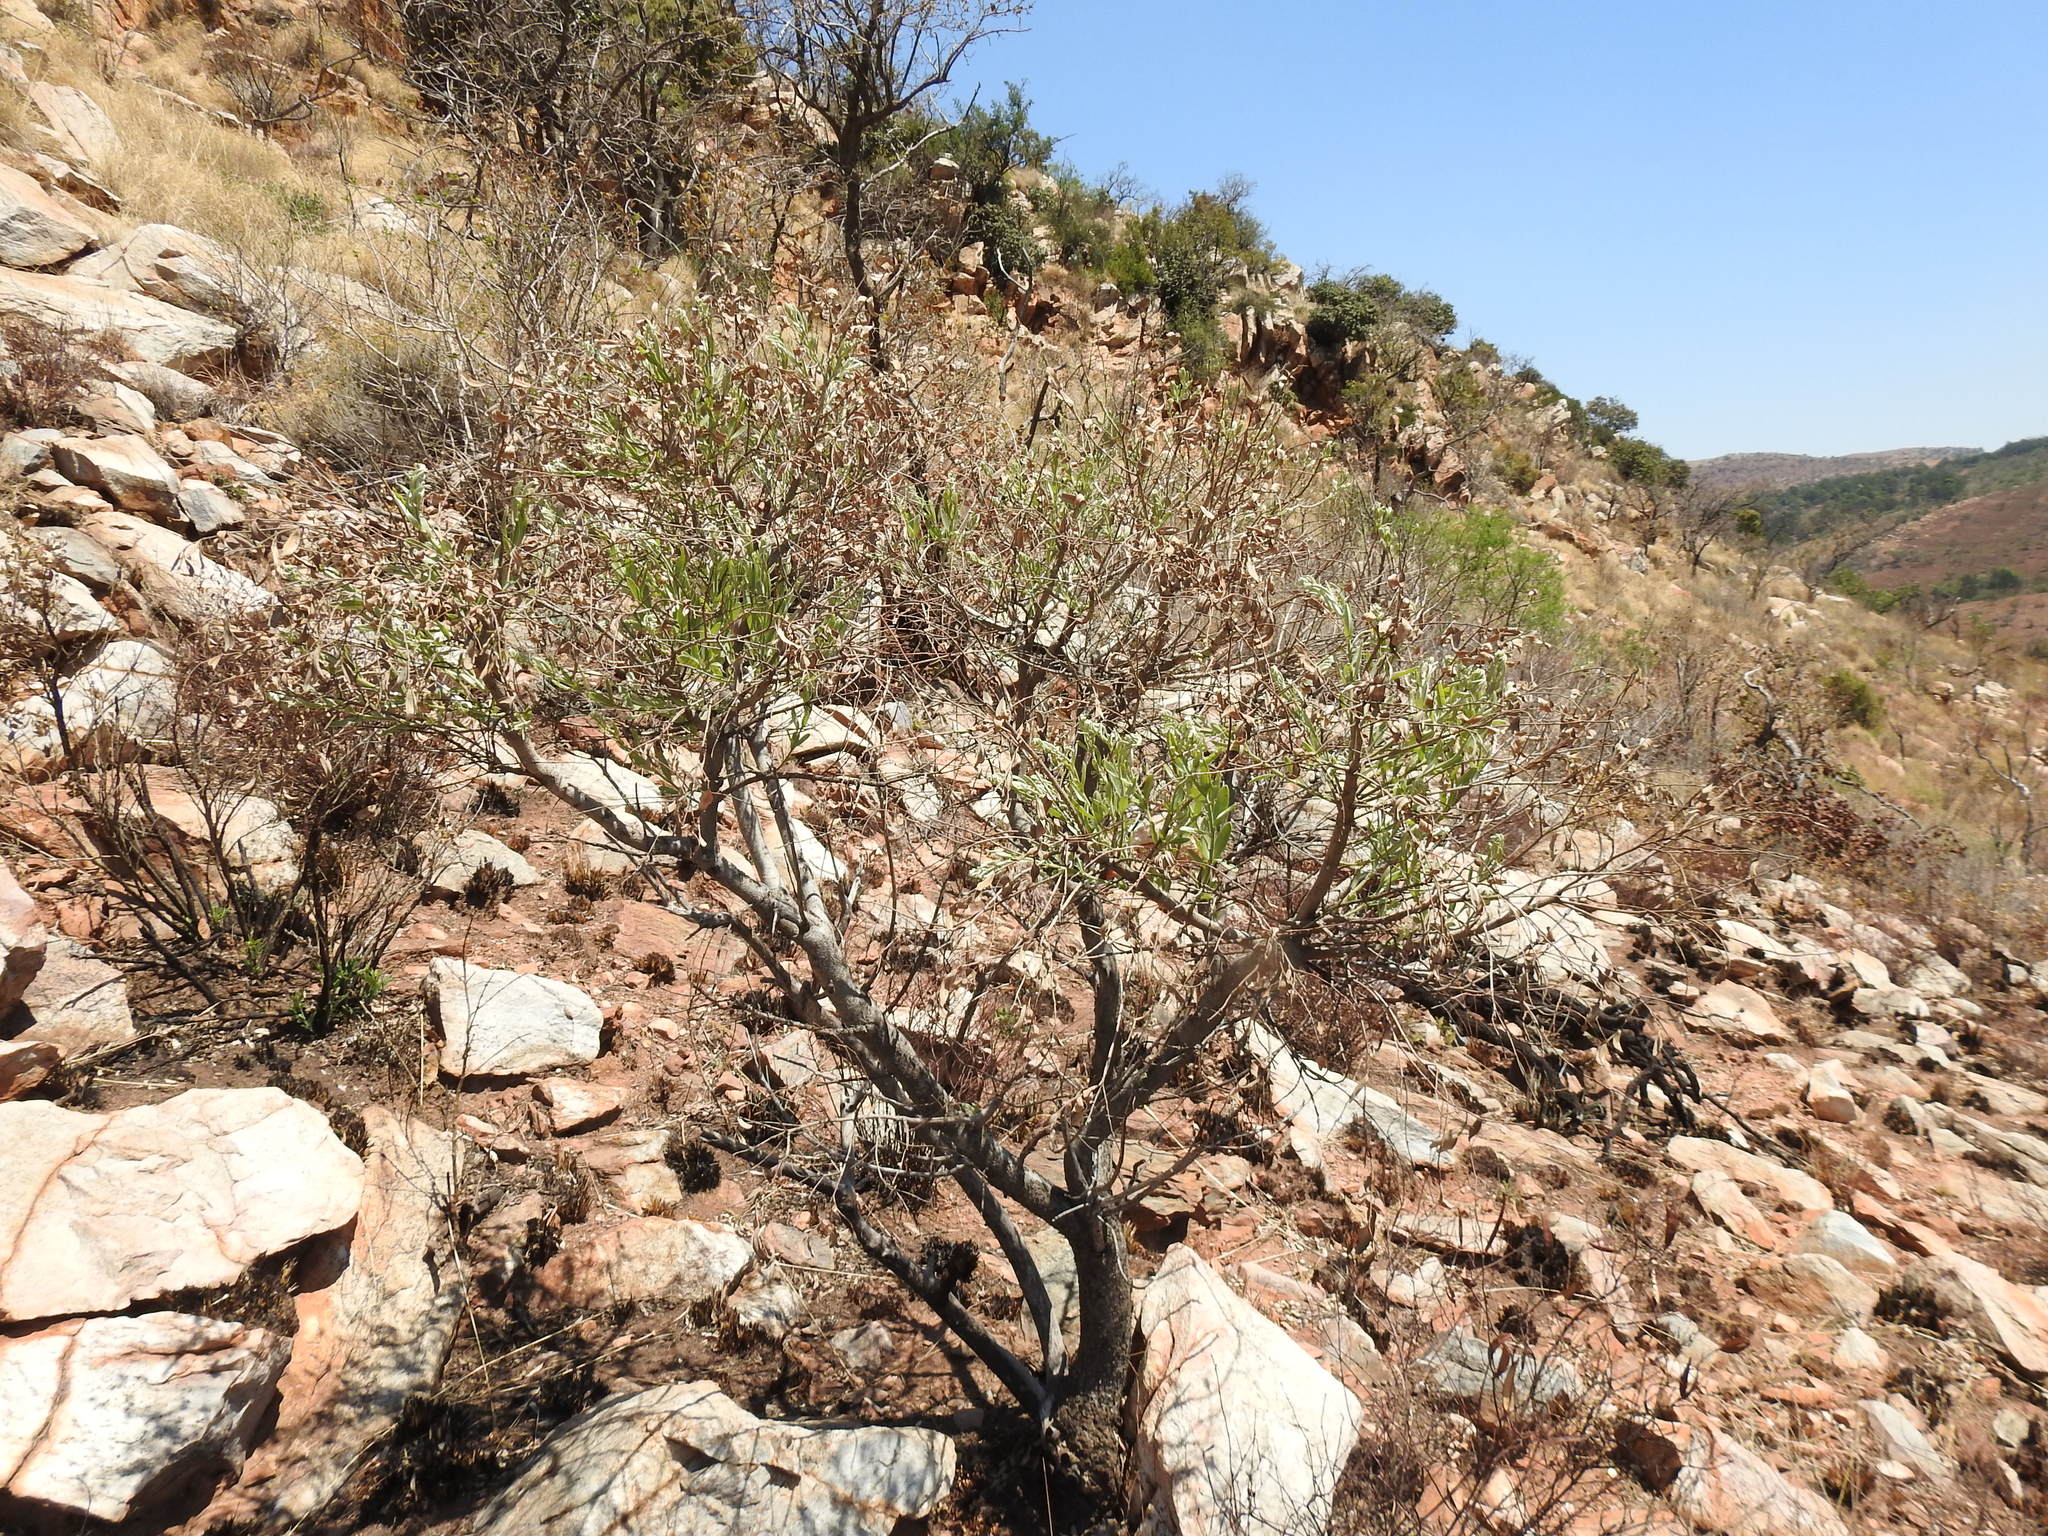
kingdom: Plantae
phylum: Tracheophyta
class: Magnoliopsida
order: Sapindales
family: Anacardiaceae
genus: Ozoroa
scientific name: Ozoroa paniculosa
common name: Bushveld ozoroa
